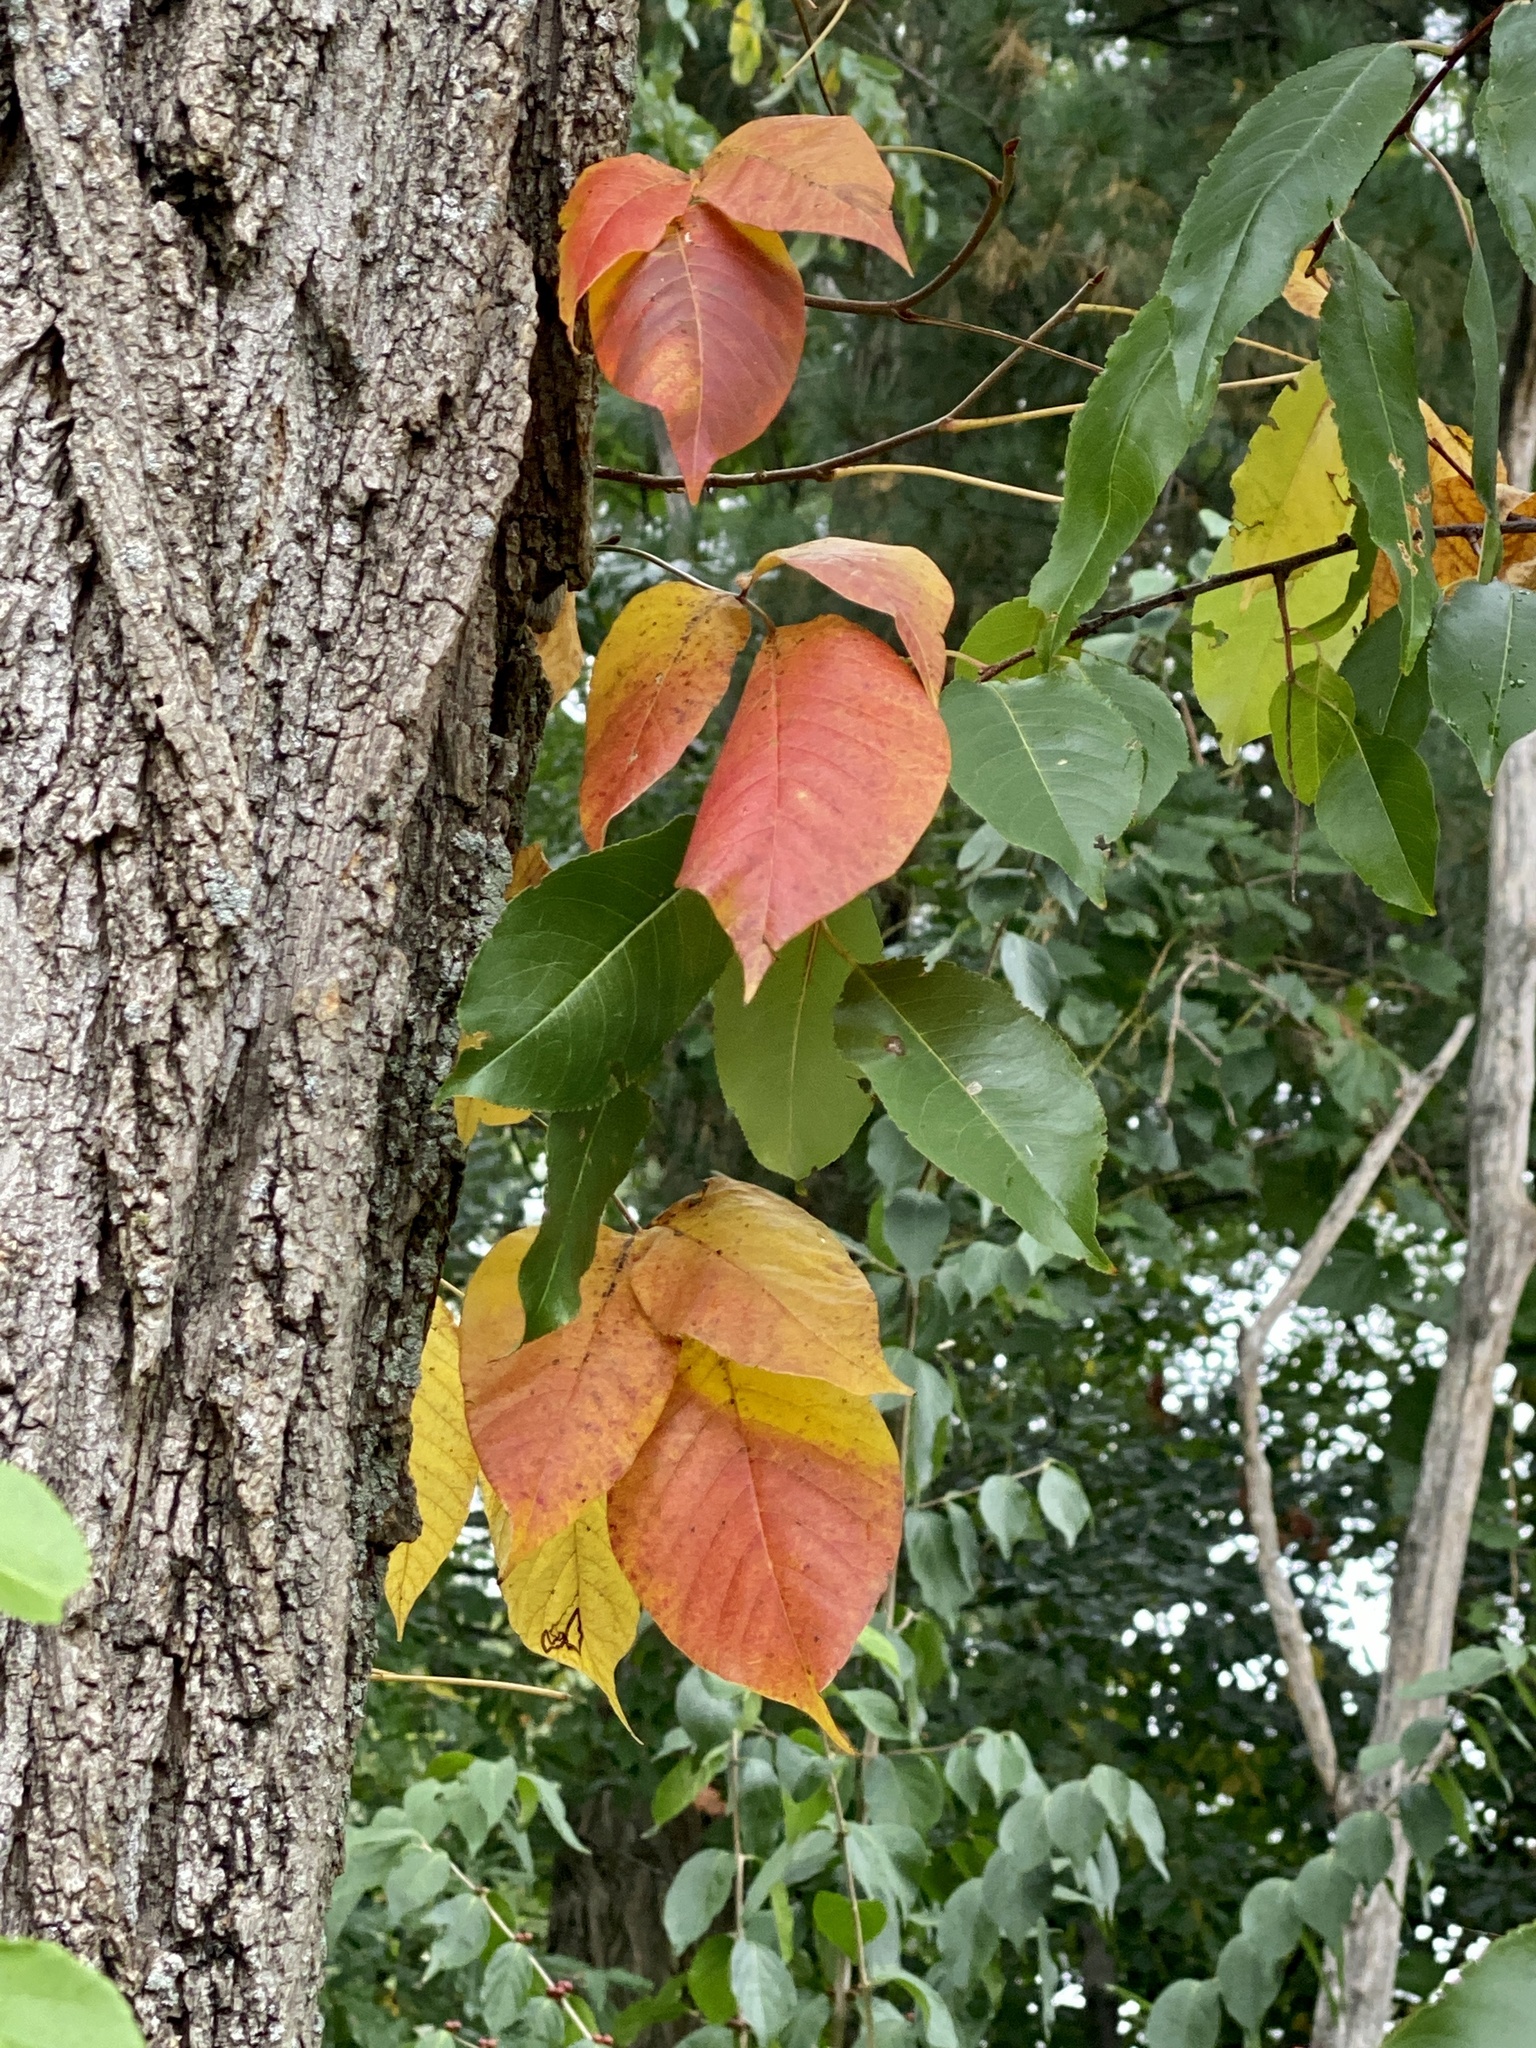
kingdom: Plantae
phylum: Tracheophyta
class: Magnoliopsida
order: Sapindales
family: Anacardiaceae
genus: Toxicodendron
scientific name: Toxicodendron radicans
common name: Poison ivy
